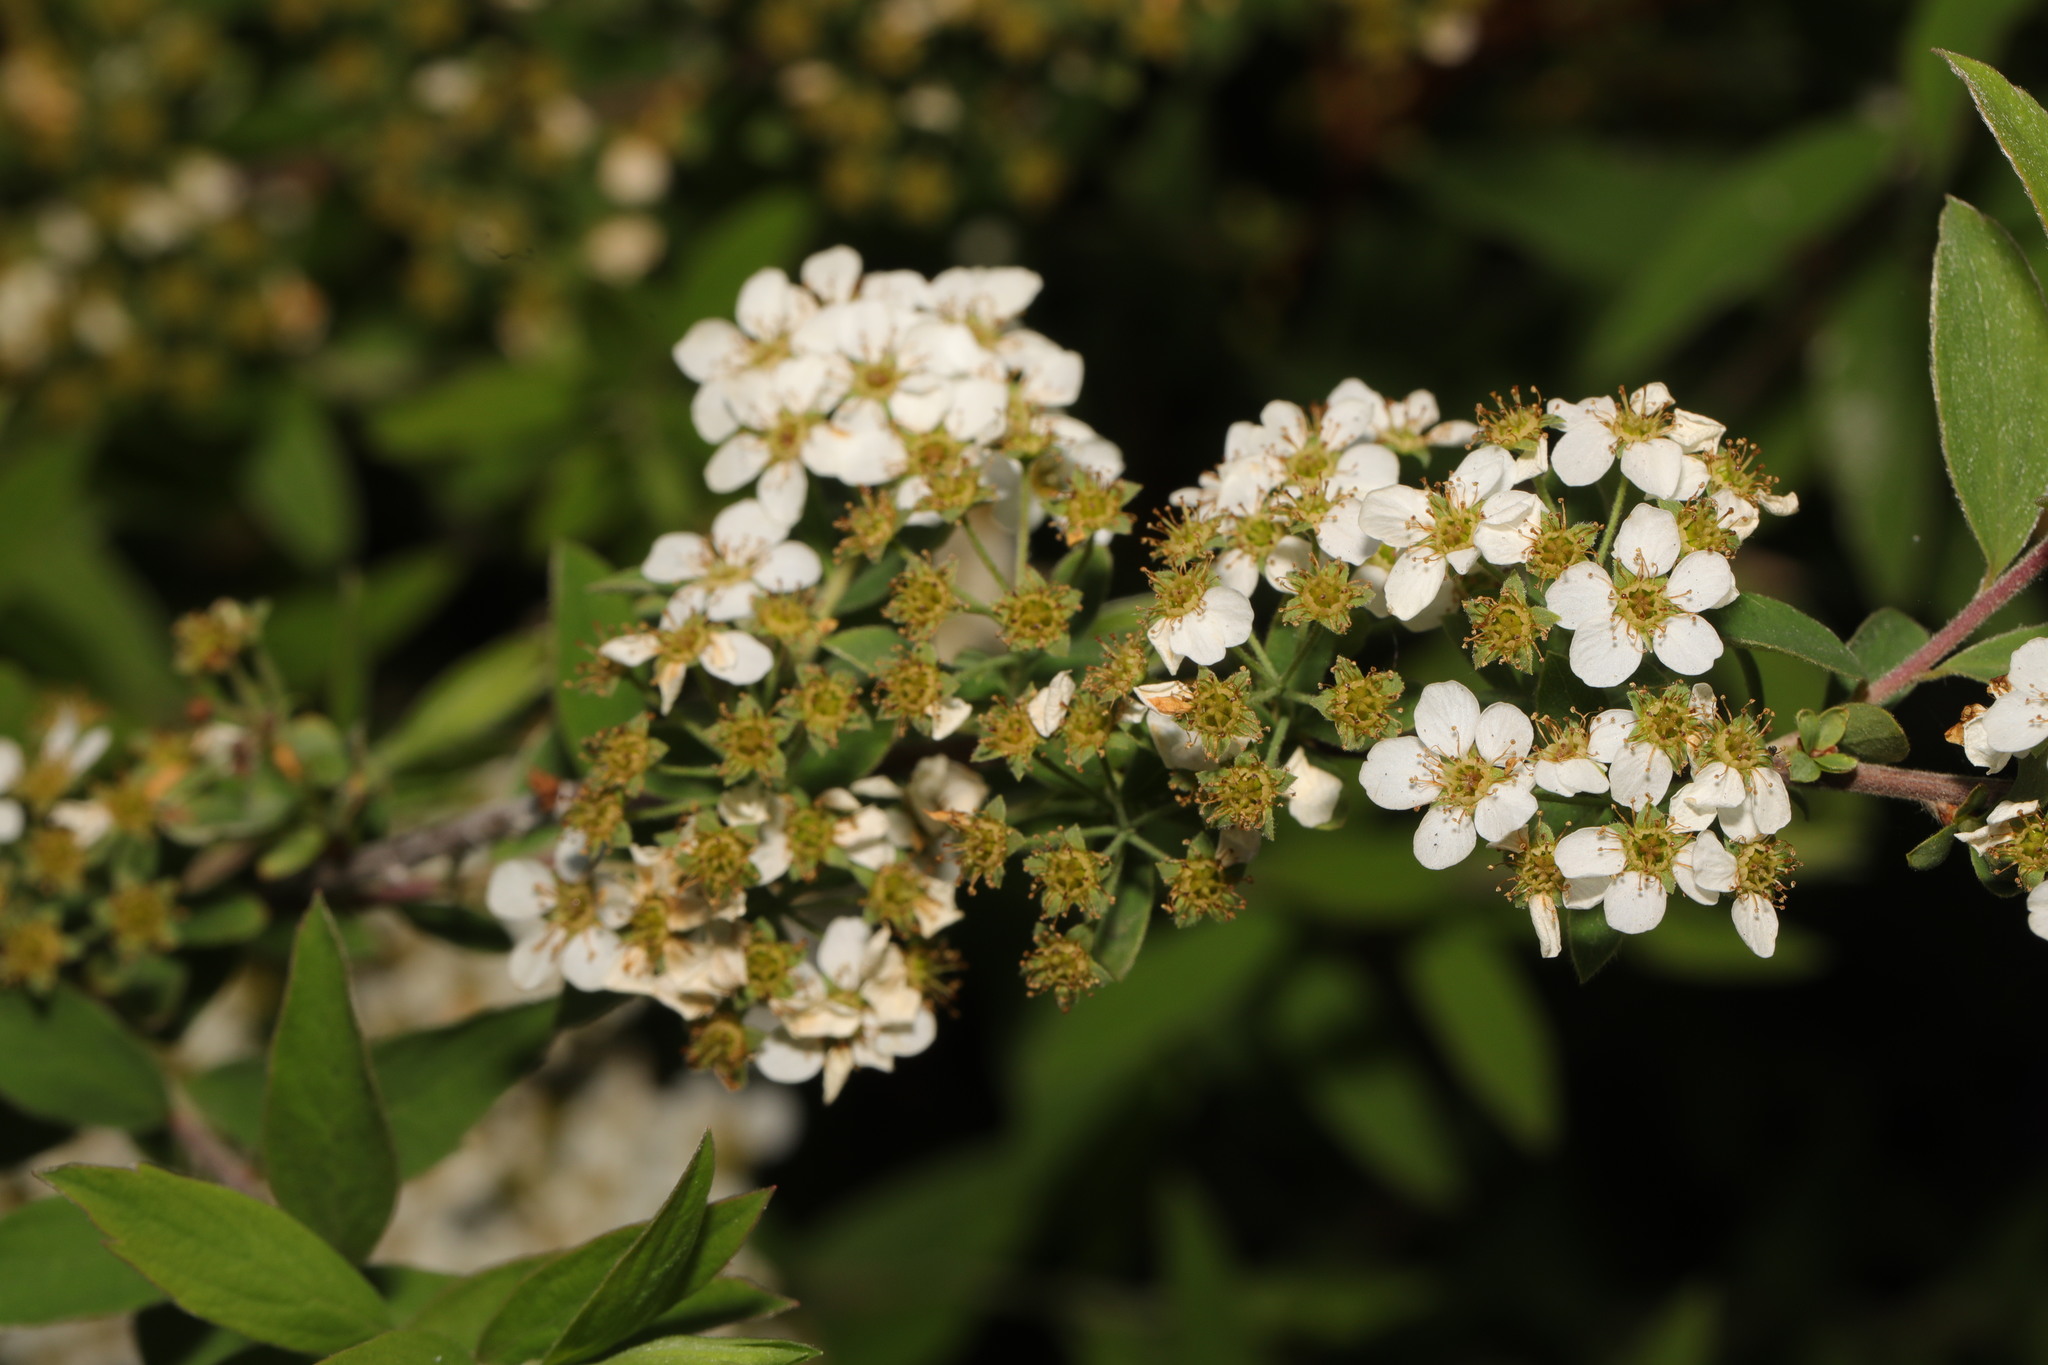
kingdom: Plantae
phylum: Tracheophyta
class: Magnoliopsida
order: Rosales
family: Rosaceae
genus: Spiraea
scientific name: Spiraea prunifolia
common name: Bridal-wreath spiraea
